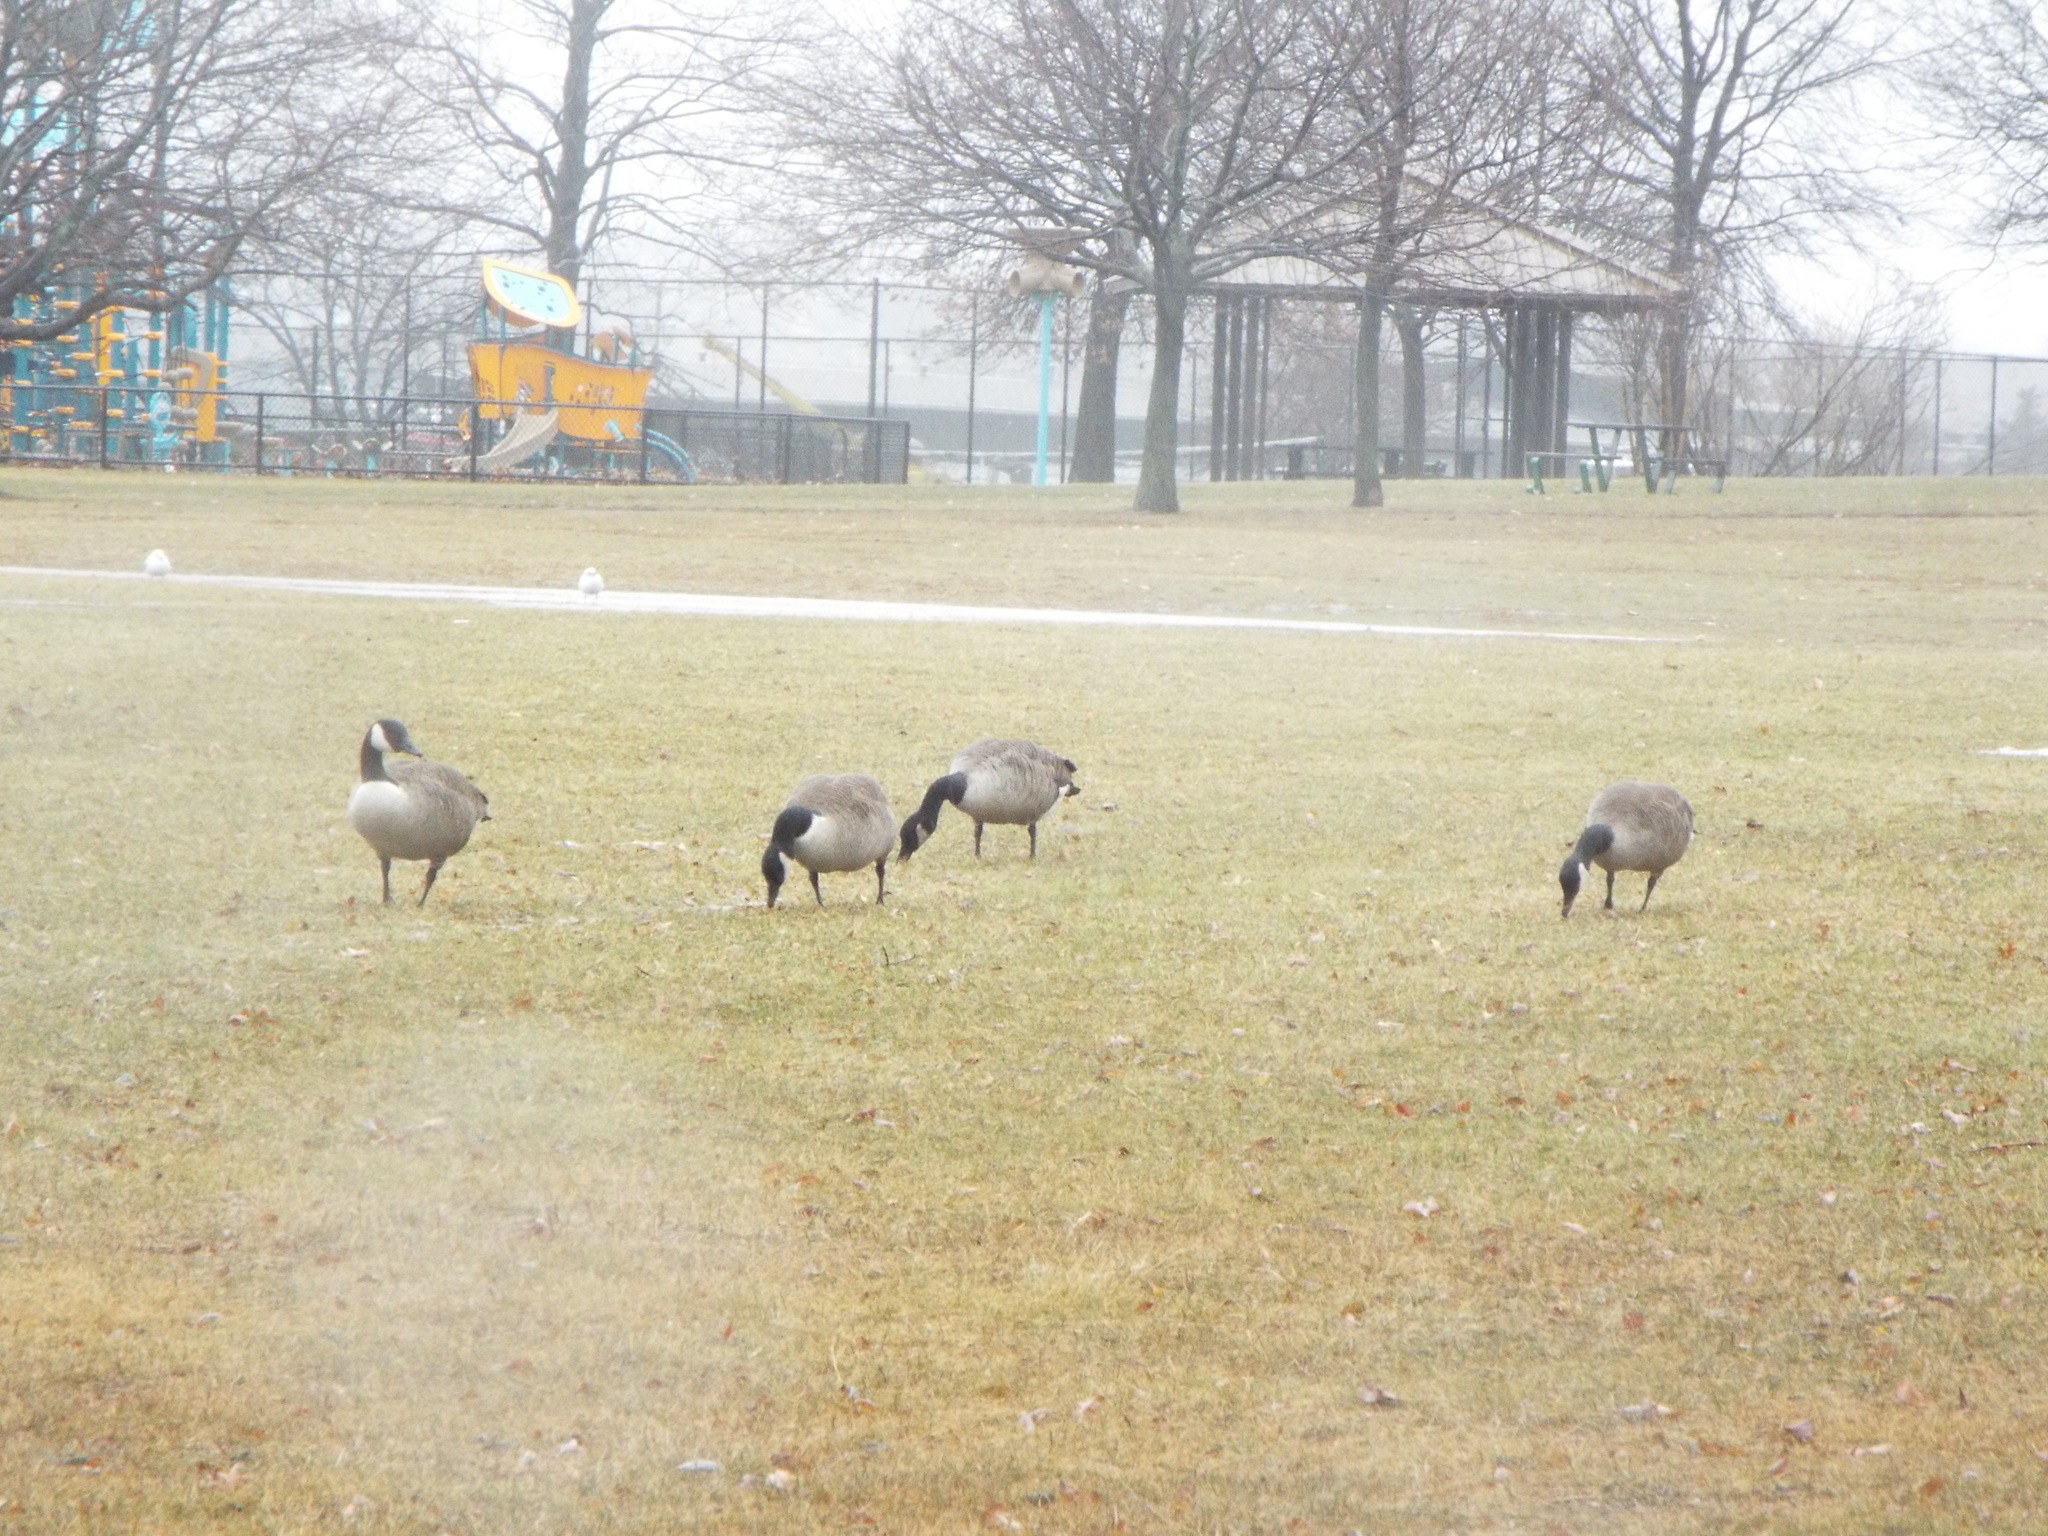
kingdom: Animalia
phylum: Chordata
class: Aves
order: Anseriformes
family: Anatidae
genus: Branta
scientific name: Branta canadensis
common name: Canada goose
